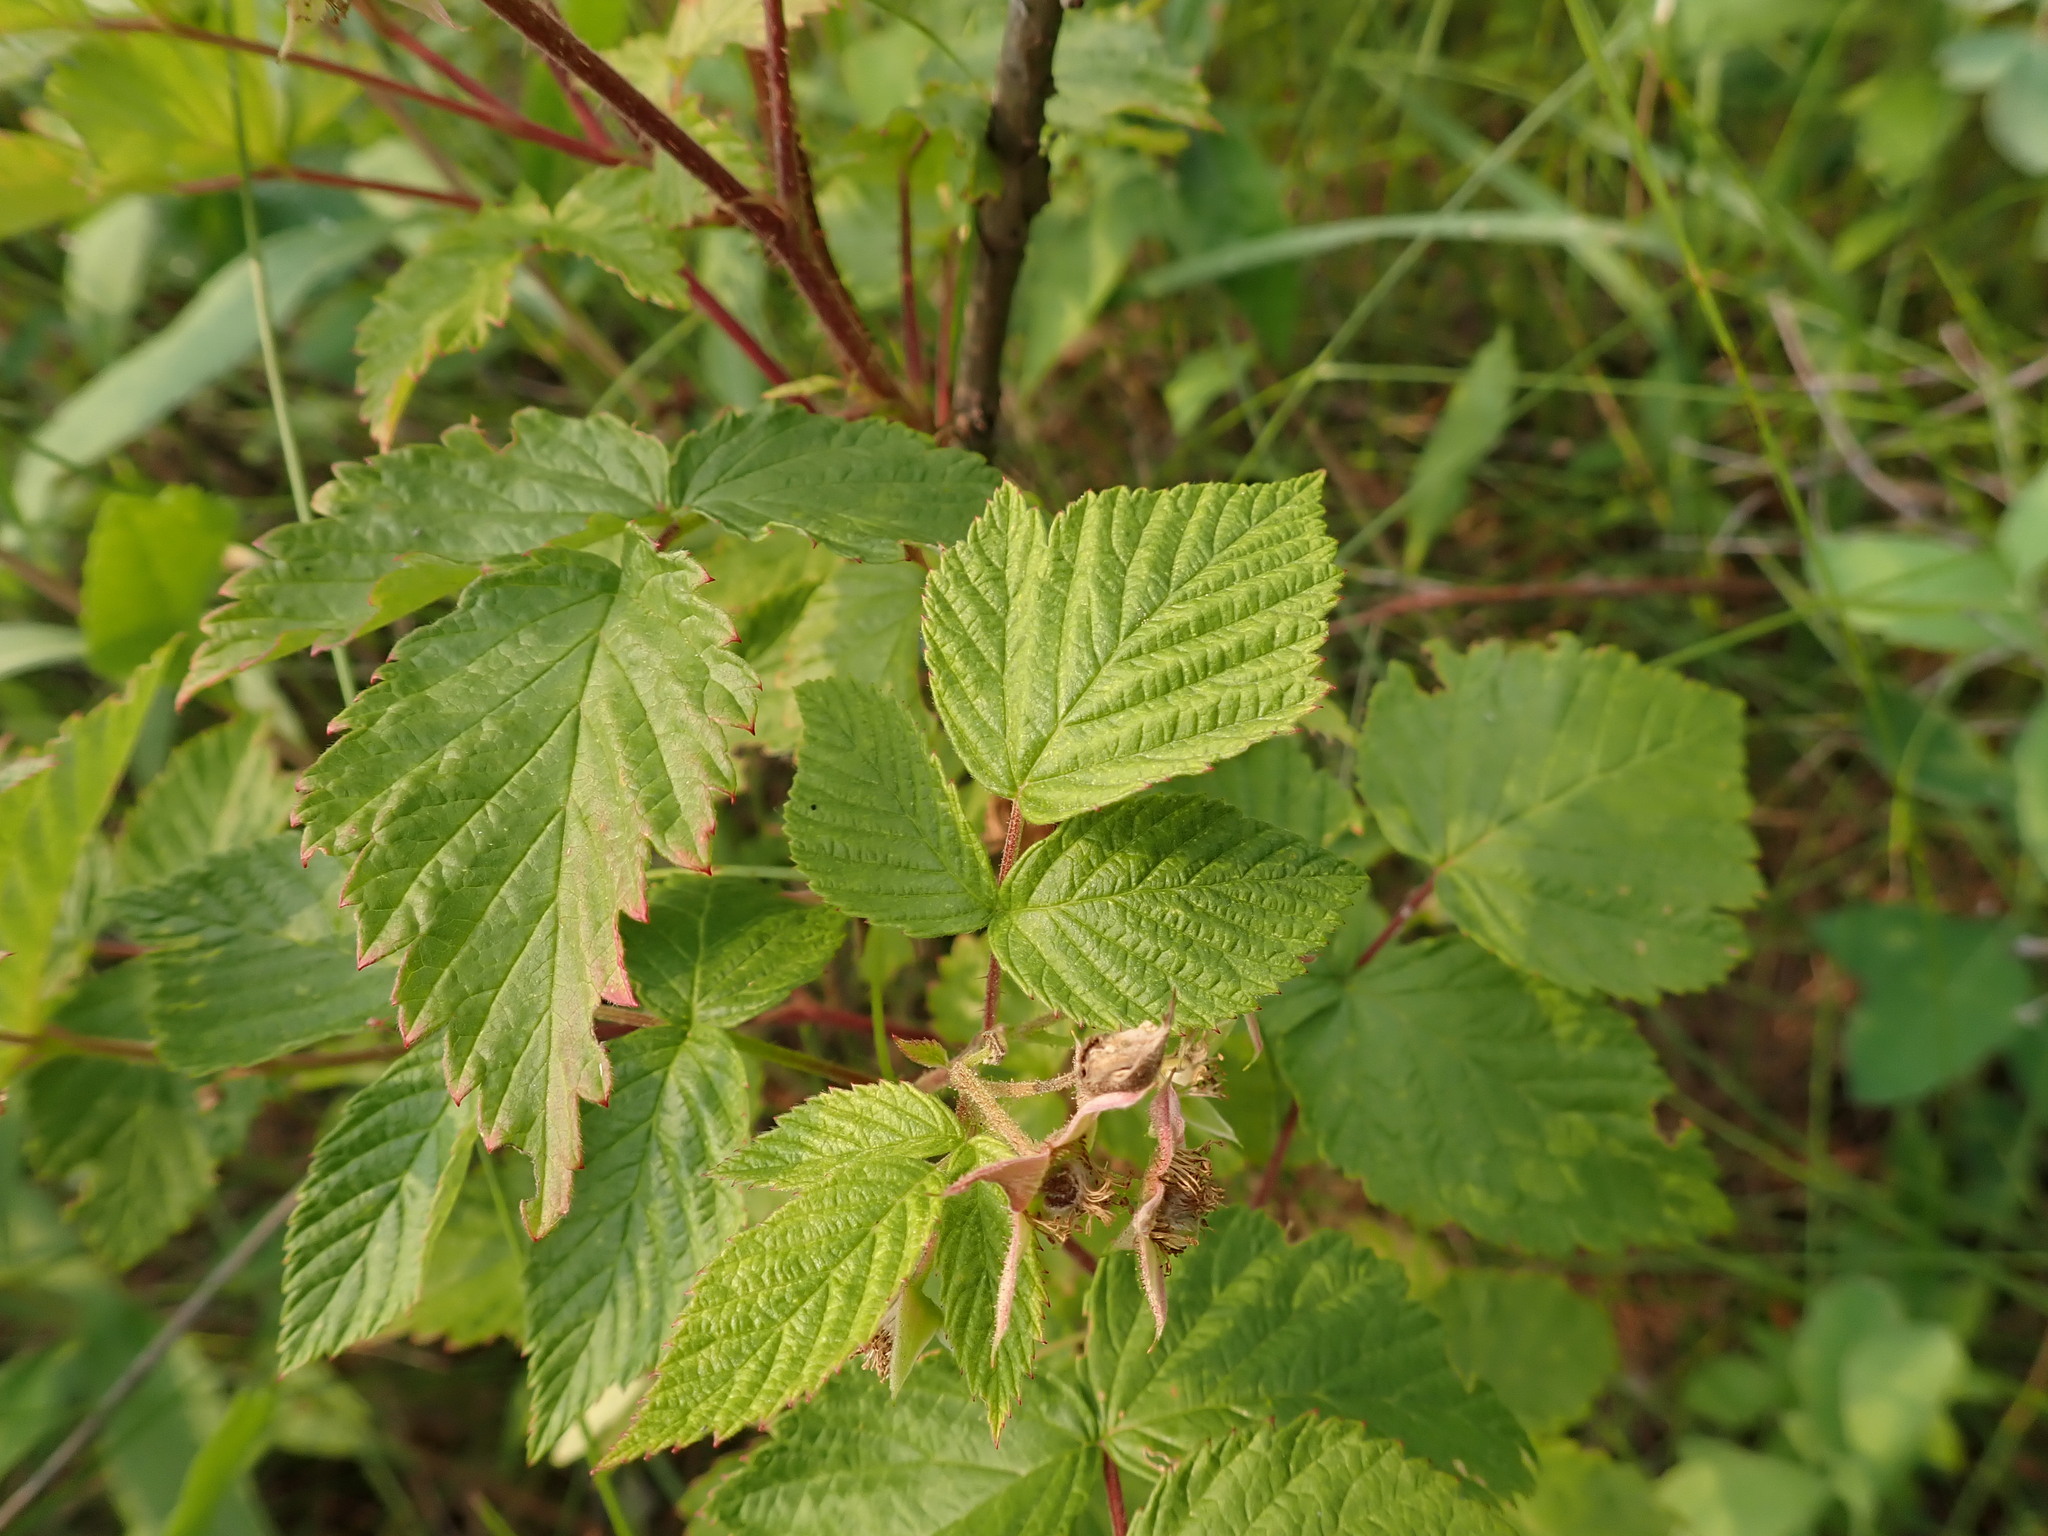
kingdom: Plantae
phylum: Tracheophyta
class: Magnoliopsida
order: Rosales
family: Rosaceae
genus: Rubus
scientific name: Rubus idaeus
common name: Raspberry
